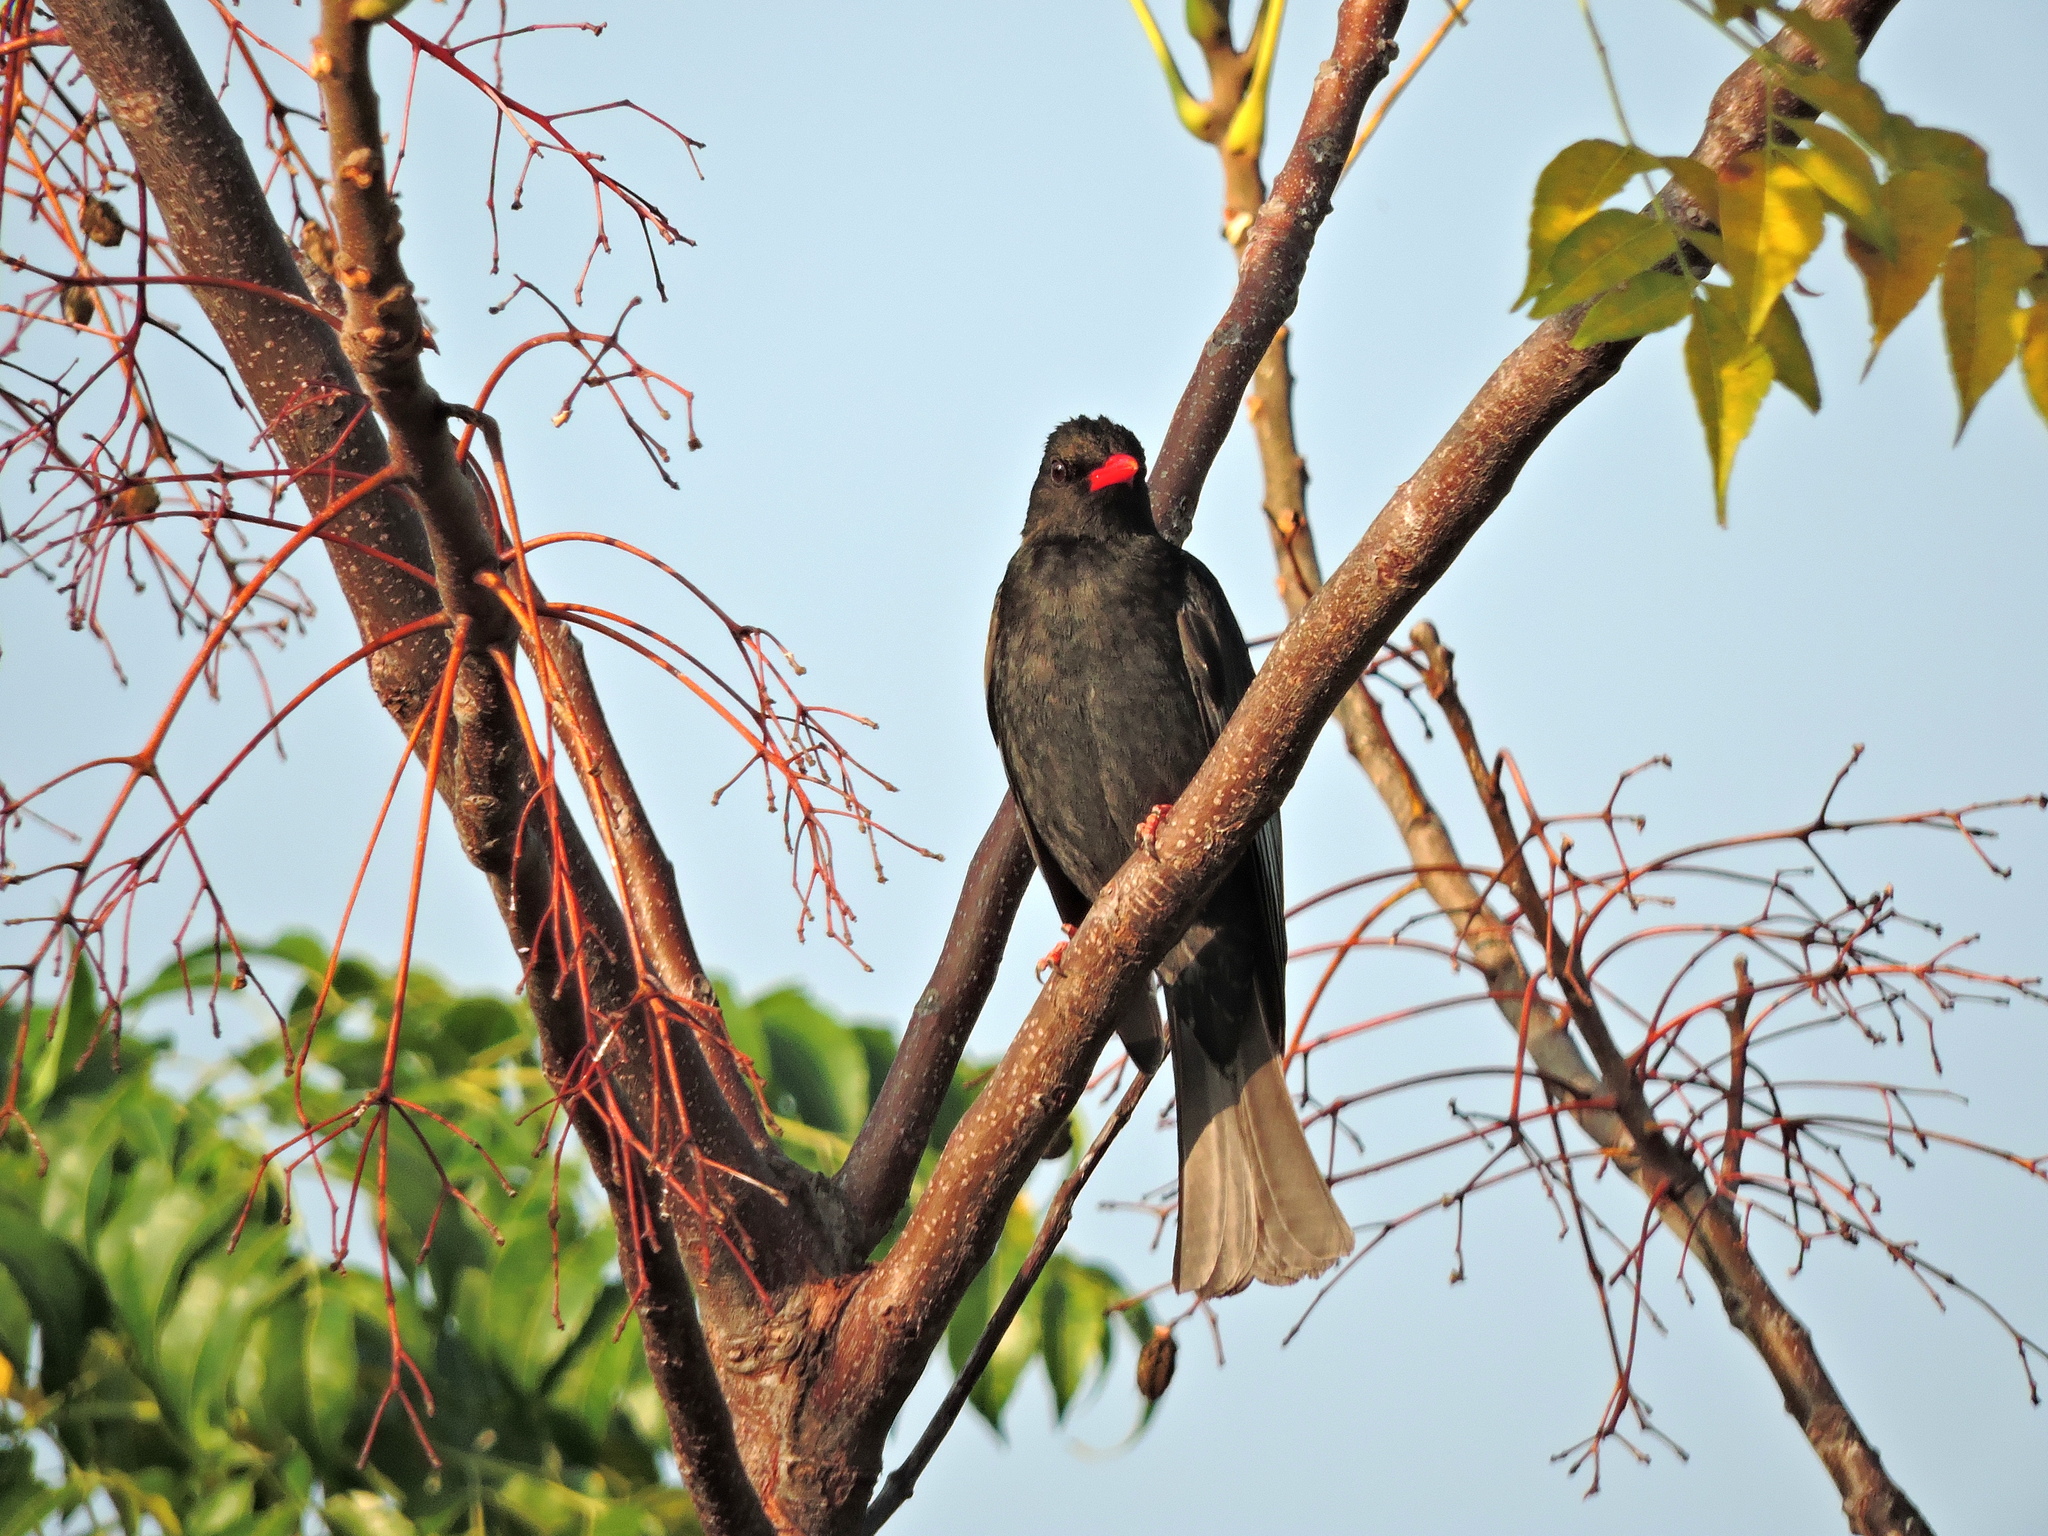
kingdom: Animalia
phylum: Chordata
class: Aves
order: Passeriformes
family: Pycnonotidae
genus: Hypsipetes
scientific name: Hypsipetes leucocephalus
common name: Black bulbul
